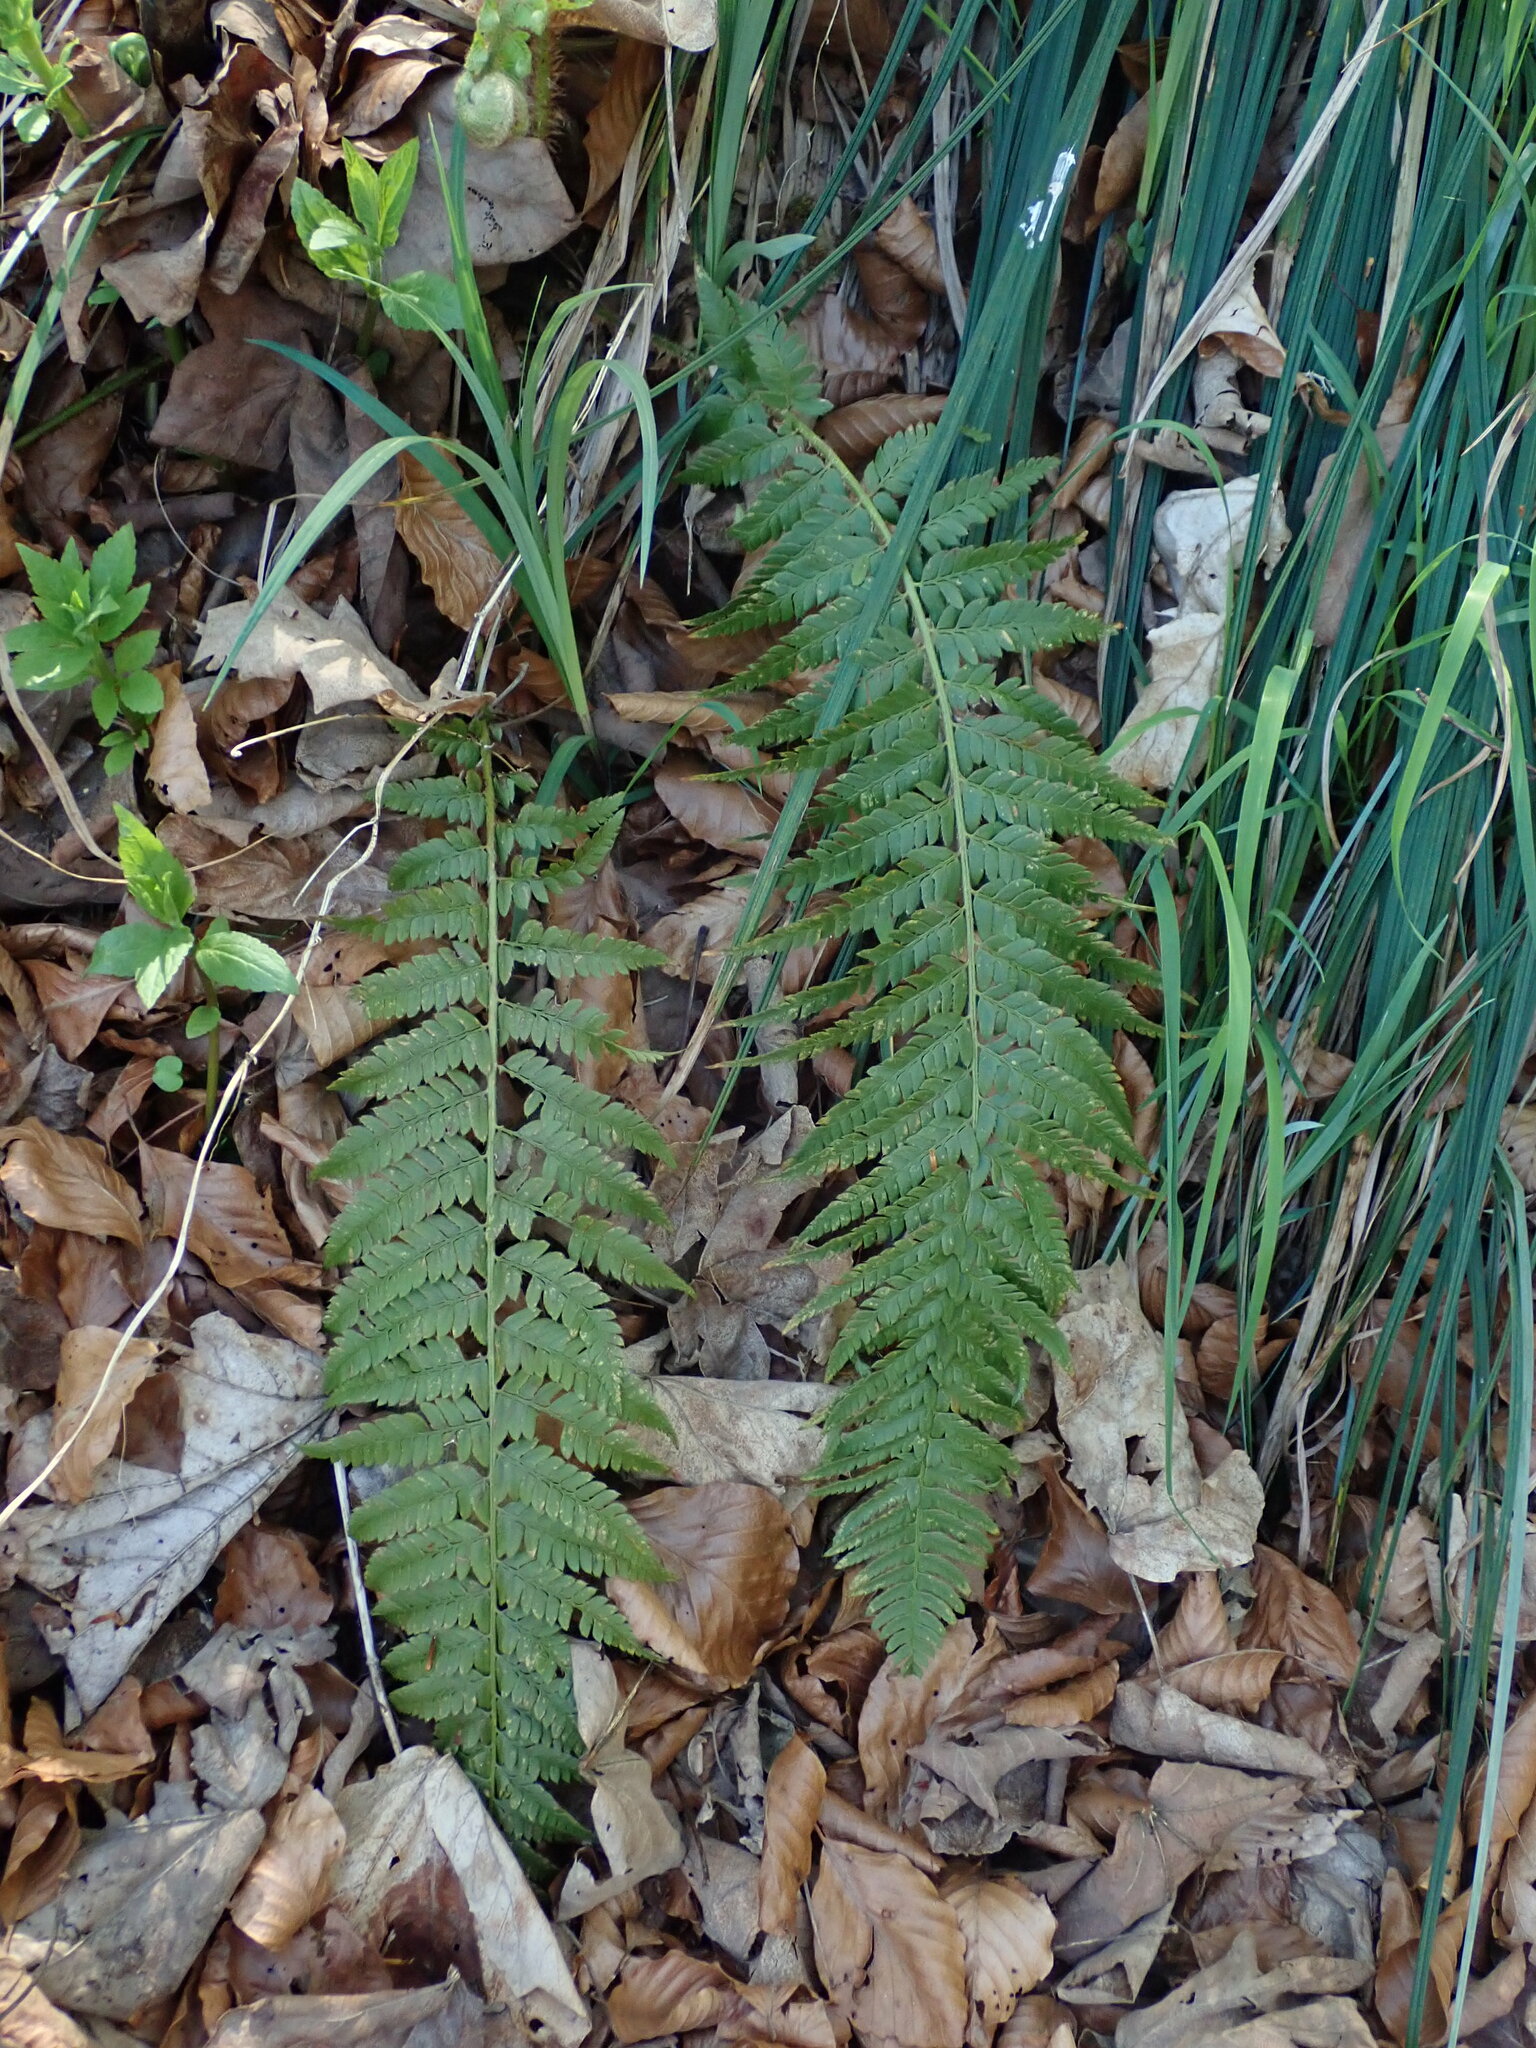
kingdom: Plantae
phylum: Tracheophyta
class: Polypodiopsida
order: Polypodiales
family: Dryopteridaceae
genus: Polystichum
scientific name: Polystichum aculeatum
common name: Hard shield-fern
